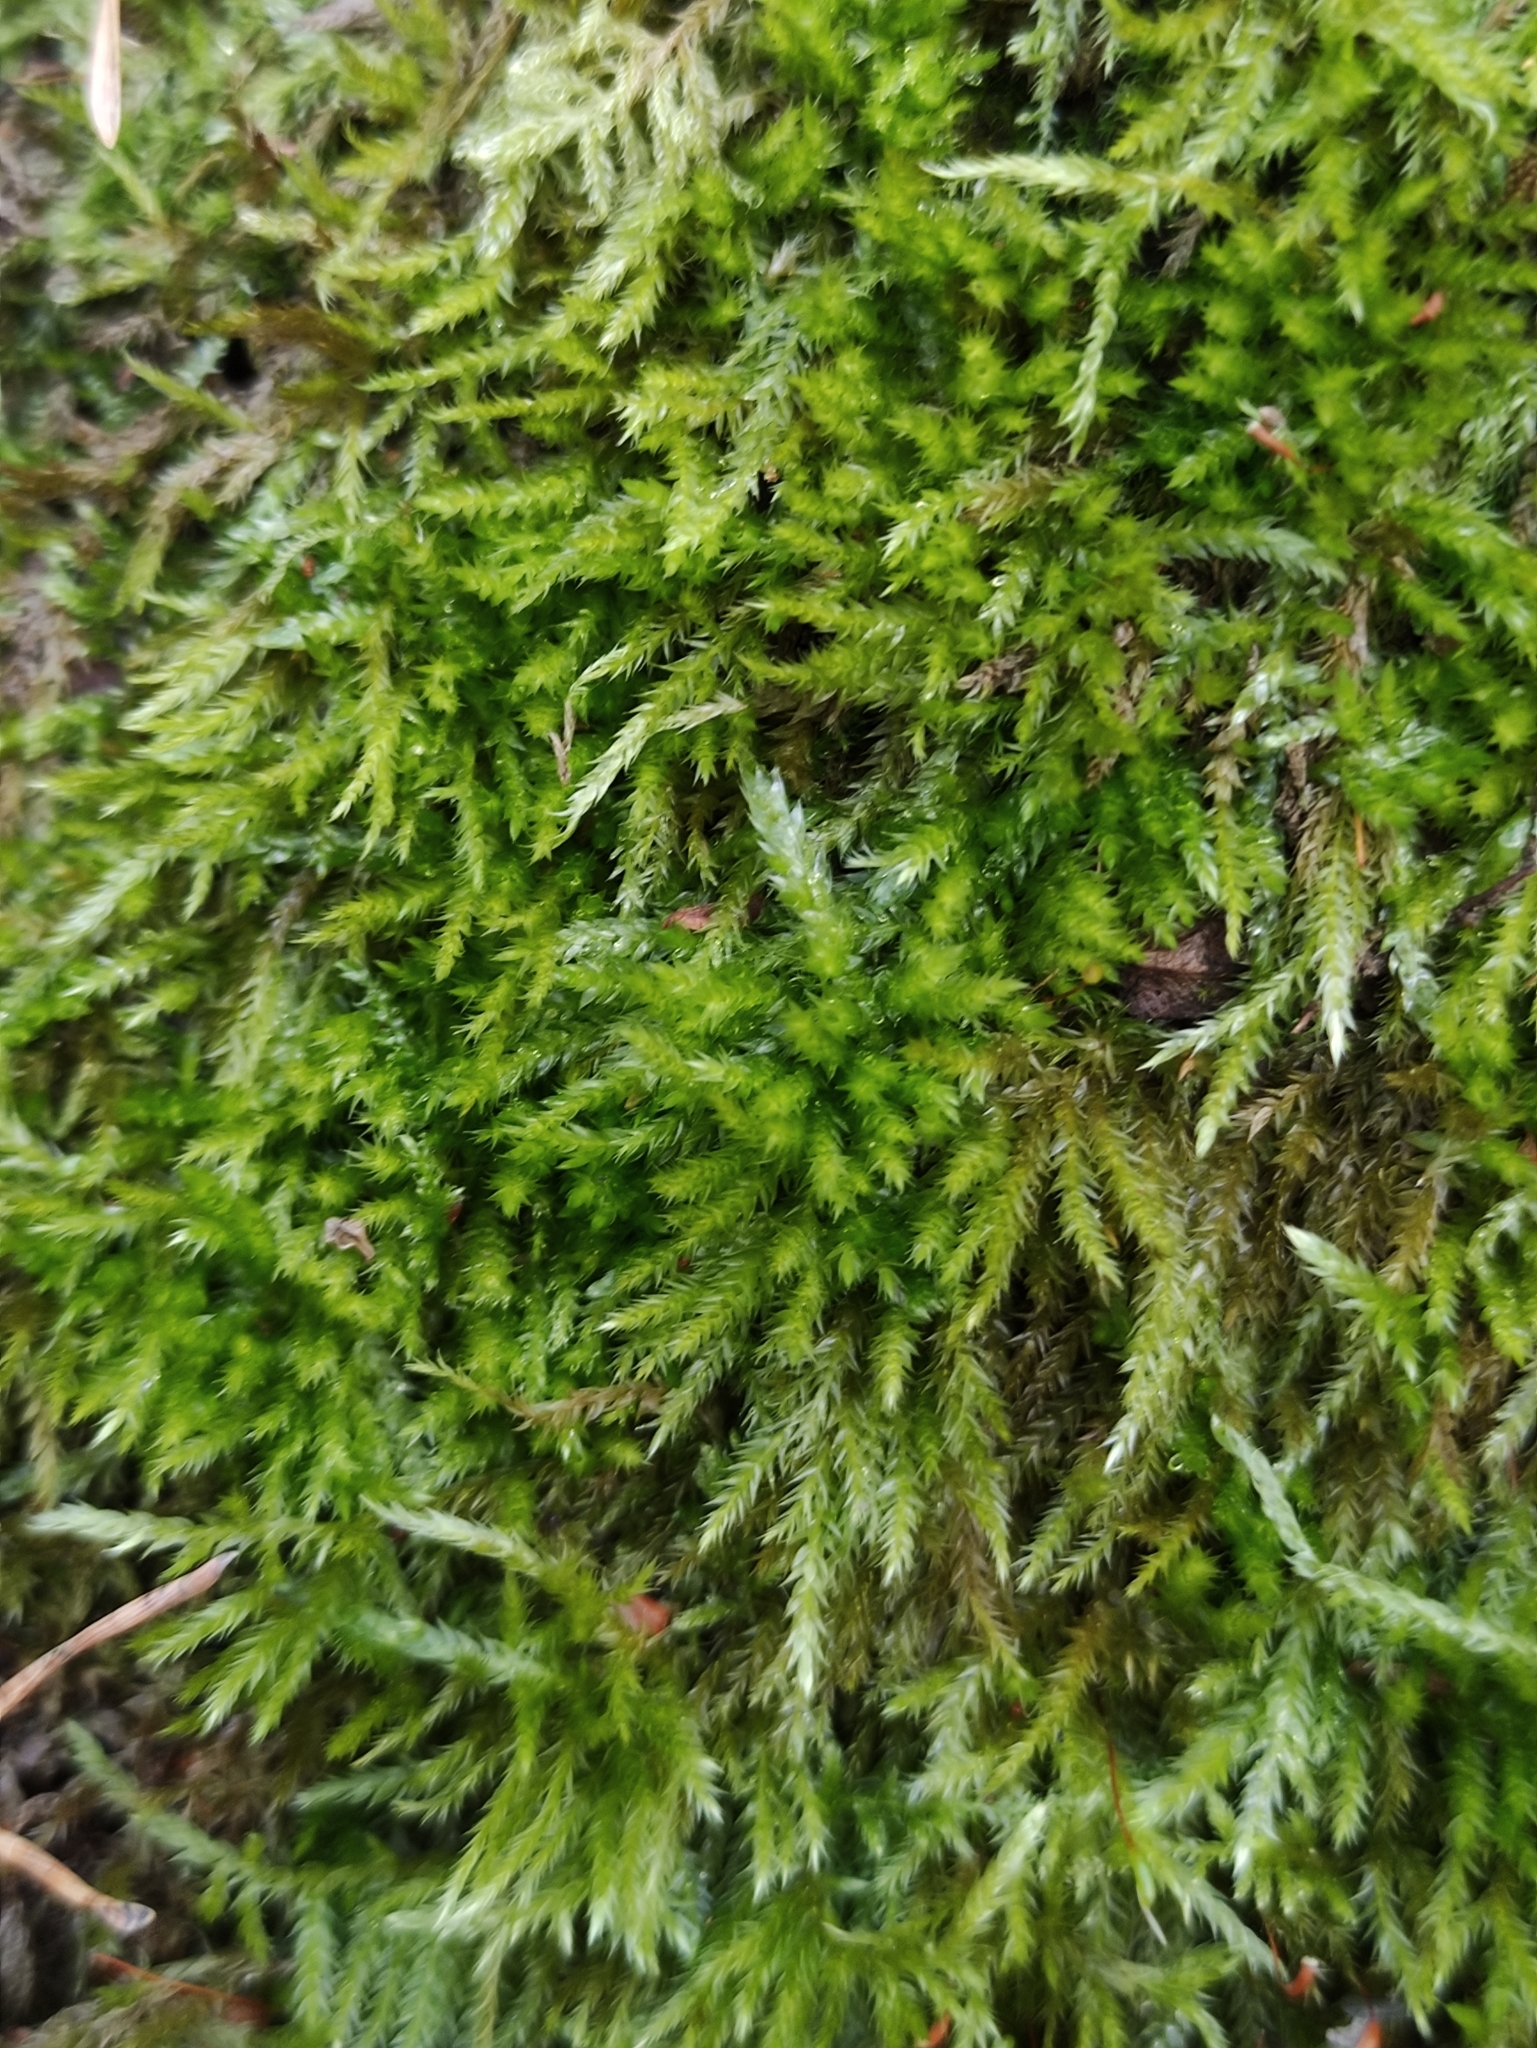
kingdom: Plantae
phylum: Bryophyta
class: Bryopsida
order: Hypnales
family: Brachytheciaceae
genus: Brachythecium
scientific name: Brachythecium rutabulum
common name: Rough-stalked feather-moss
